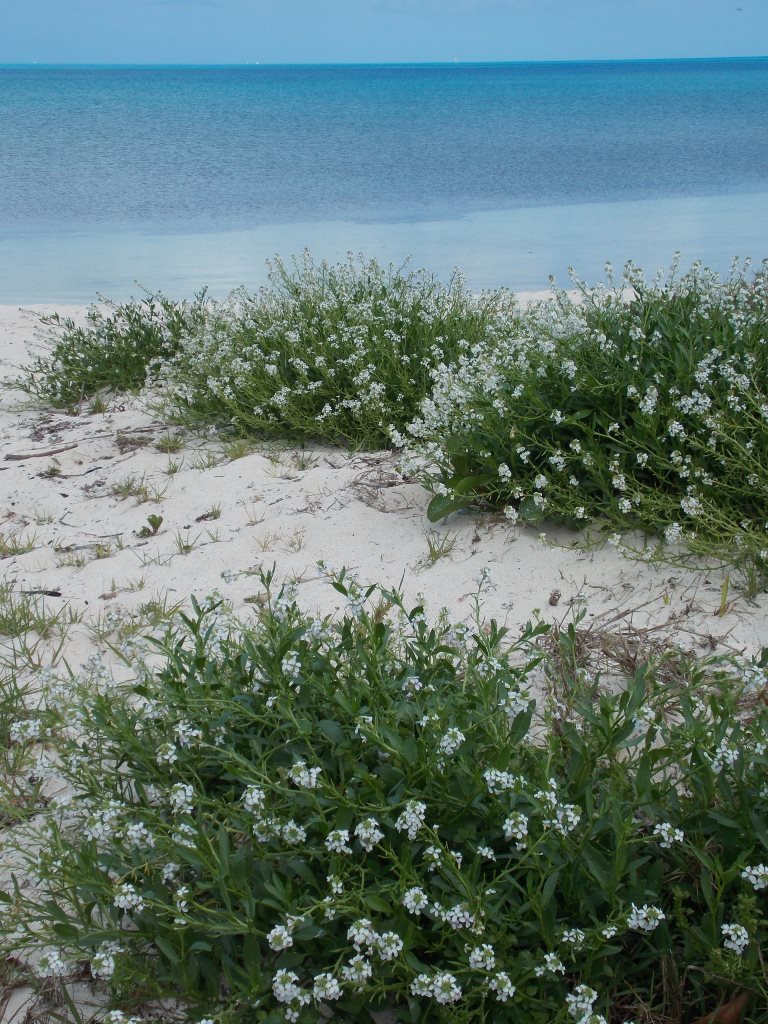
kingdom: Plantae
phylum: Tracheophyta
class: Magnoliopsida
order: Brassicales
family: Brassicaceae
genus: Cakile
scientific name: Cakile lanceolata
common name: Sea rocket
